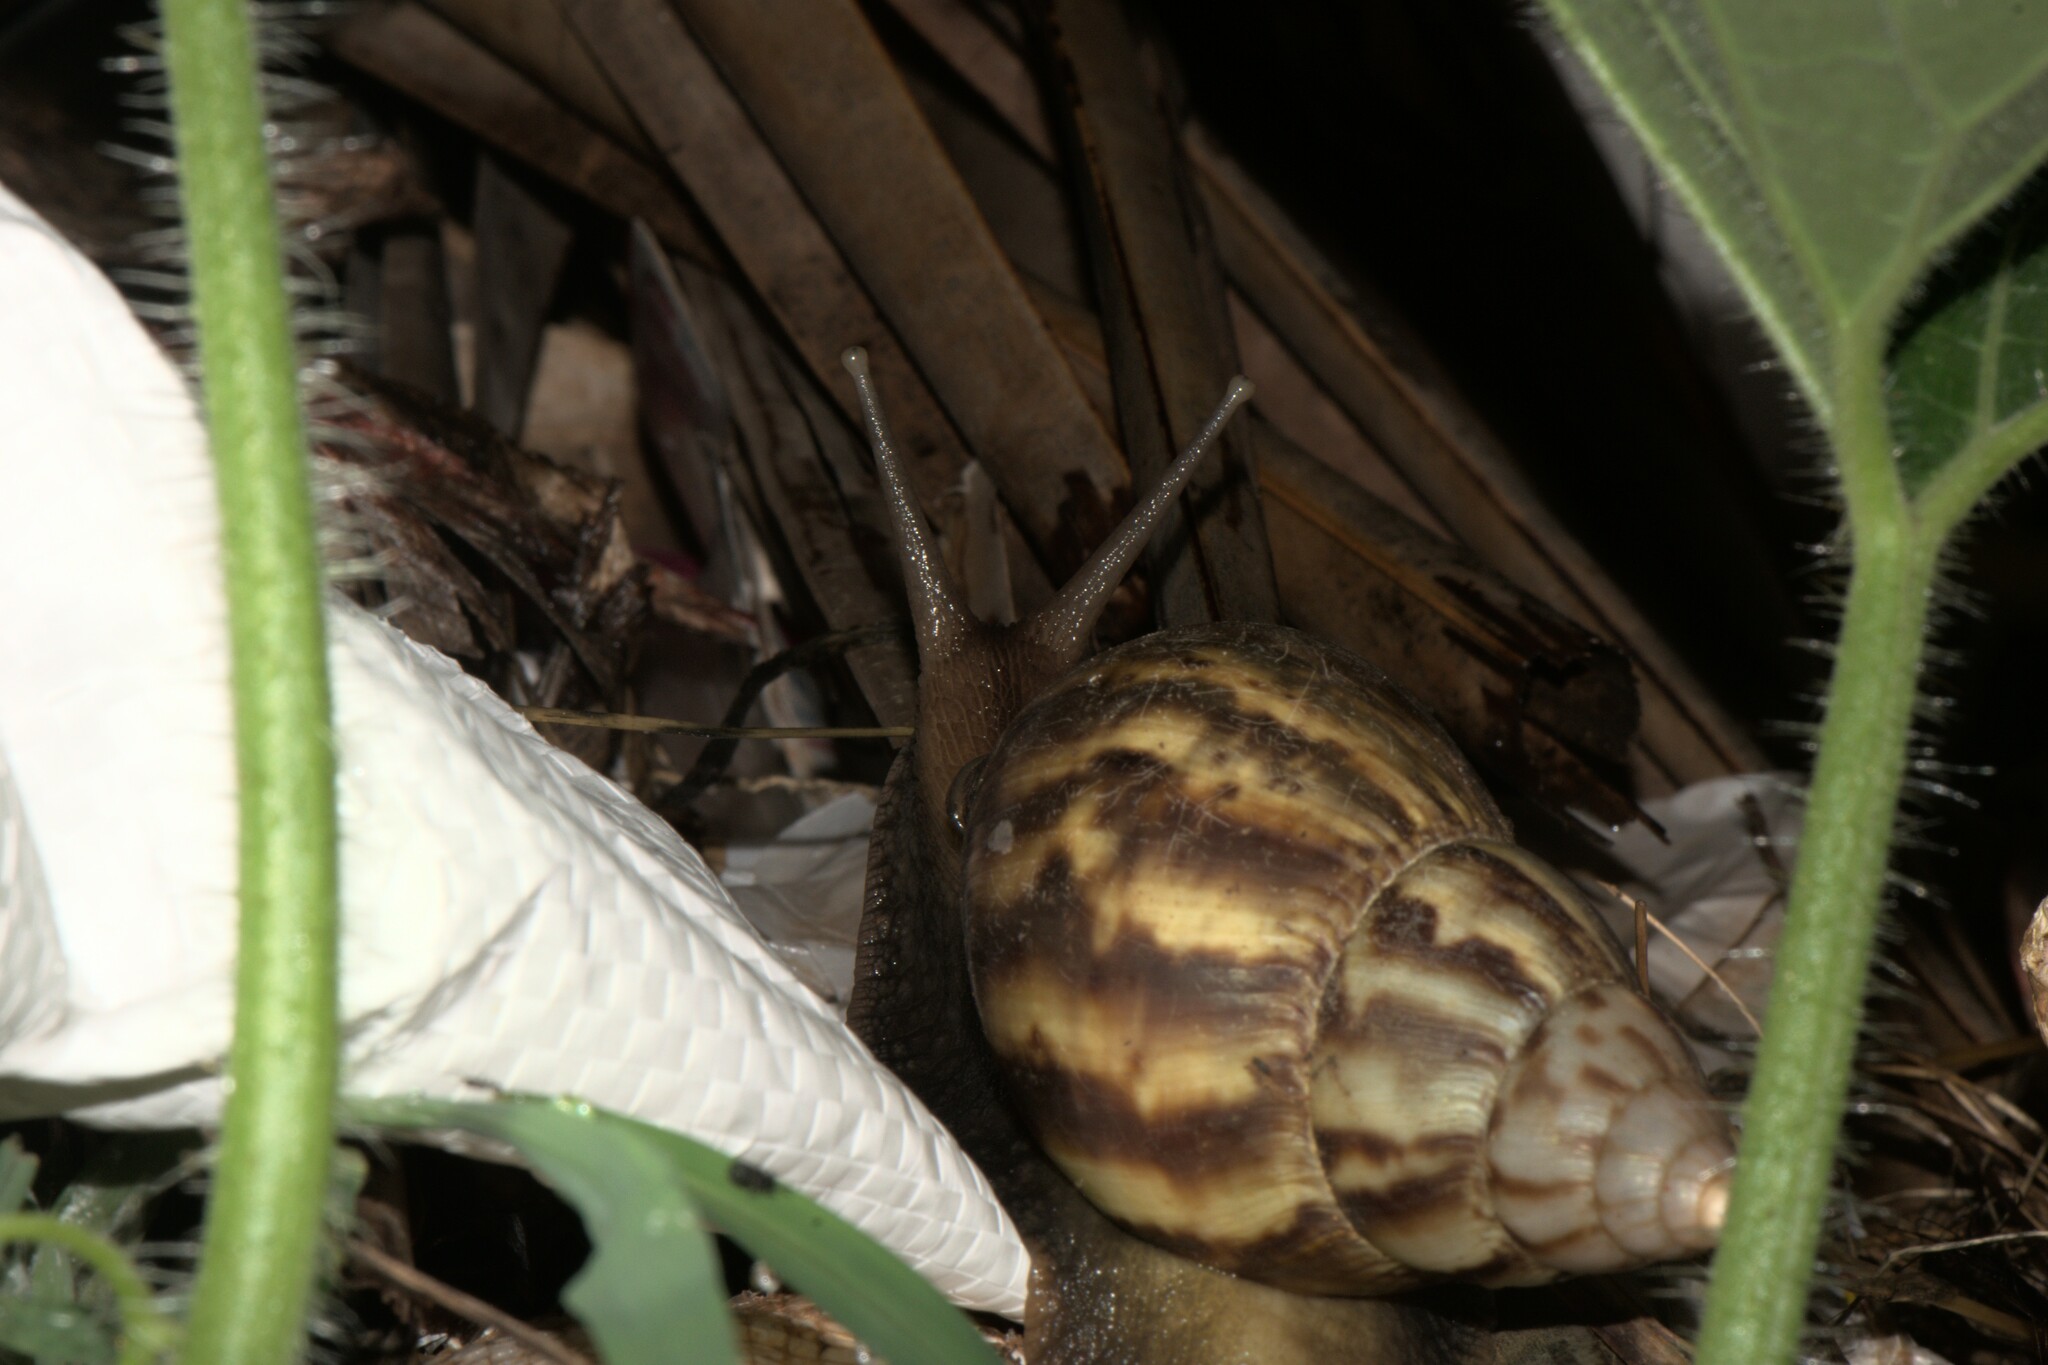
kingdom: Animalia
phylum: Mollusca
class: Gastropoda
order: Stylommatophora
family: Achatinidae
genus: Lissachatina
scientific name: Lissachatina fulica
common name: Giant african snail
